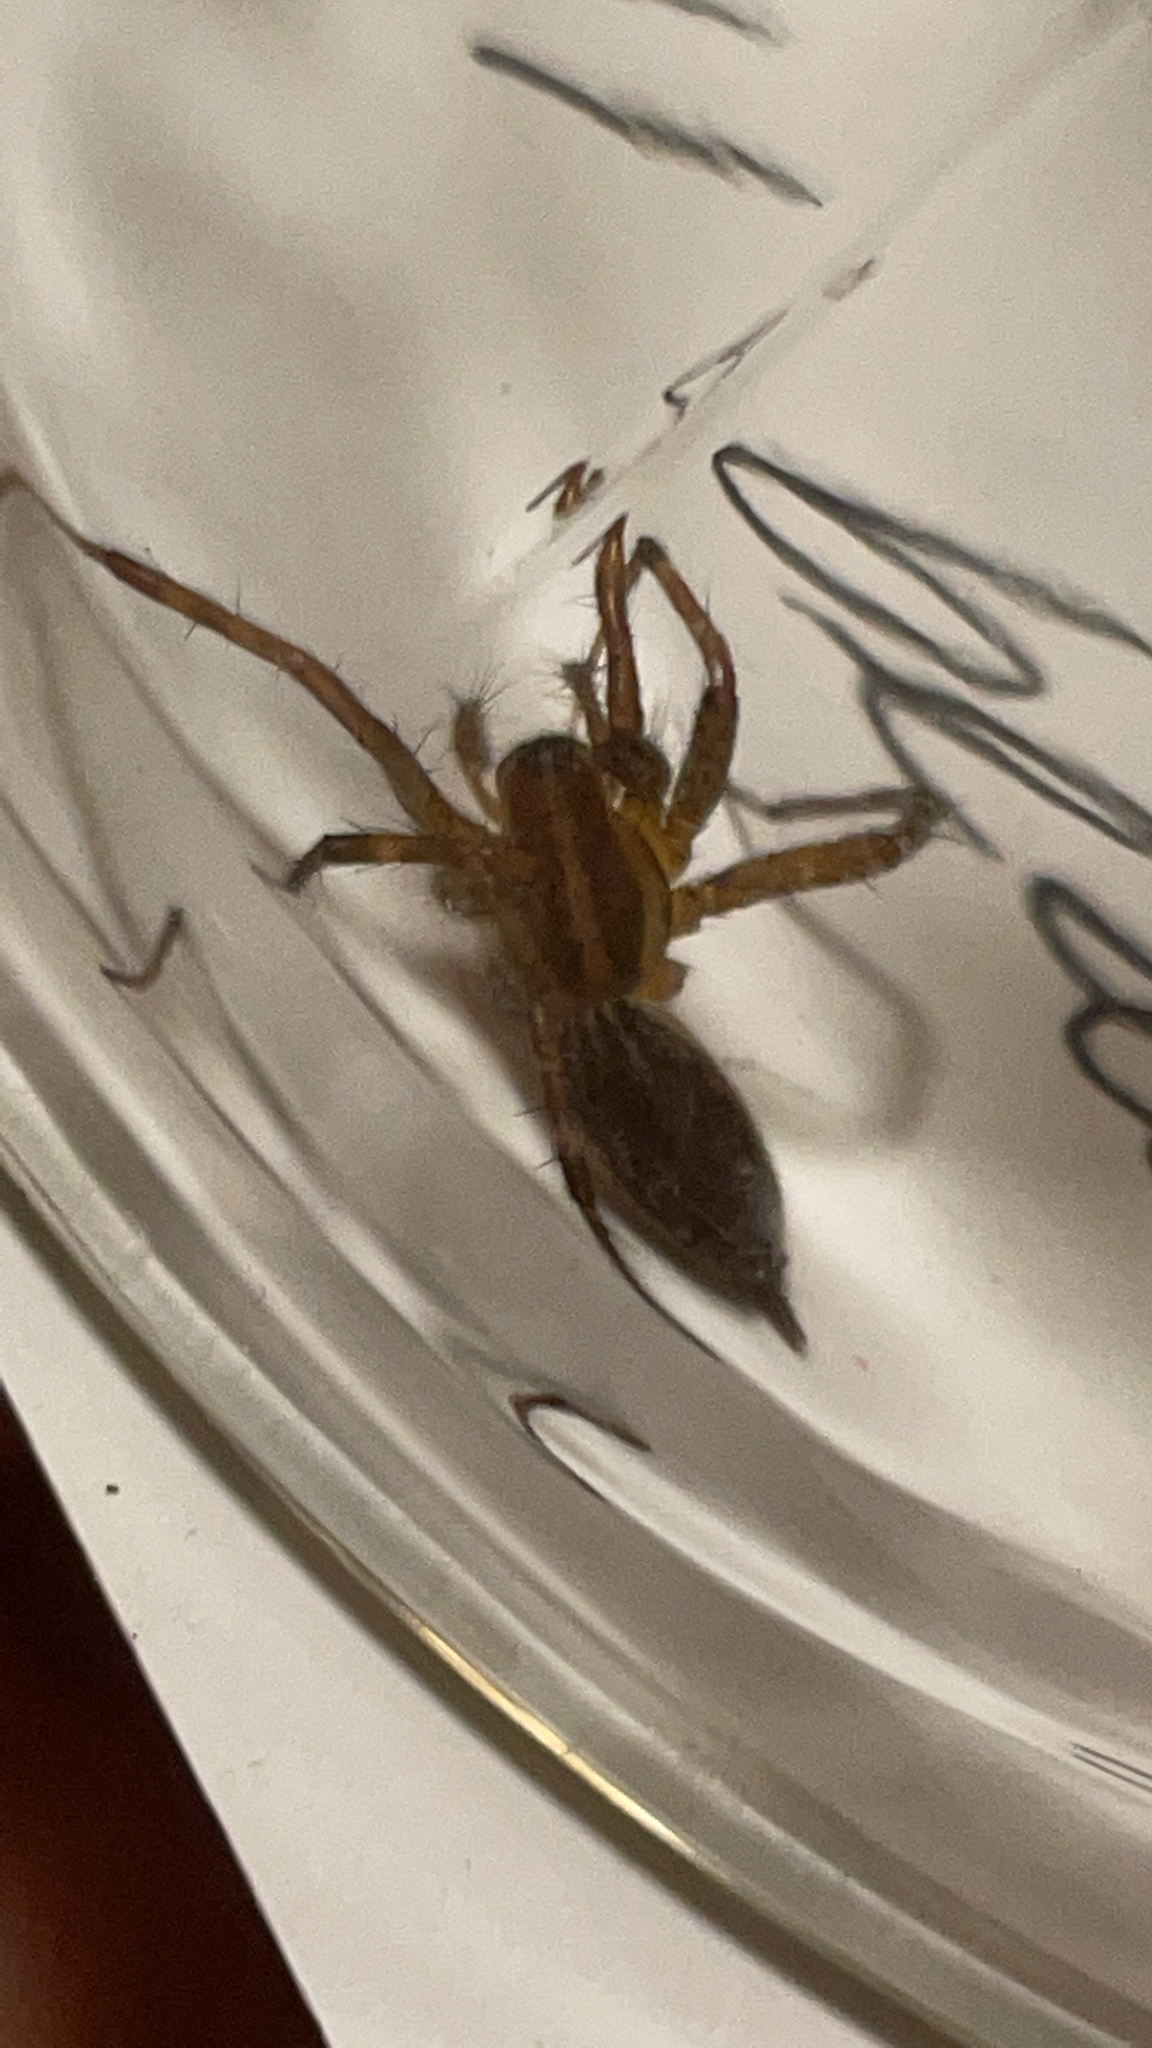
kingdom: Animalia
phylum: Arthropoda
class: Arachnida
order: Araneae
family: Agelenidae
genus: Agelenopsis
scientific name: Agelenopsis
